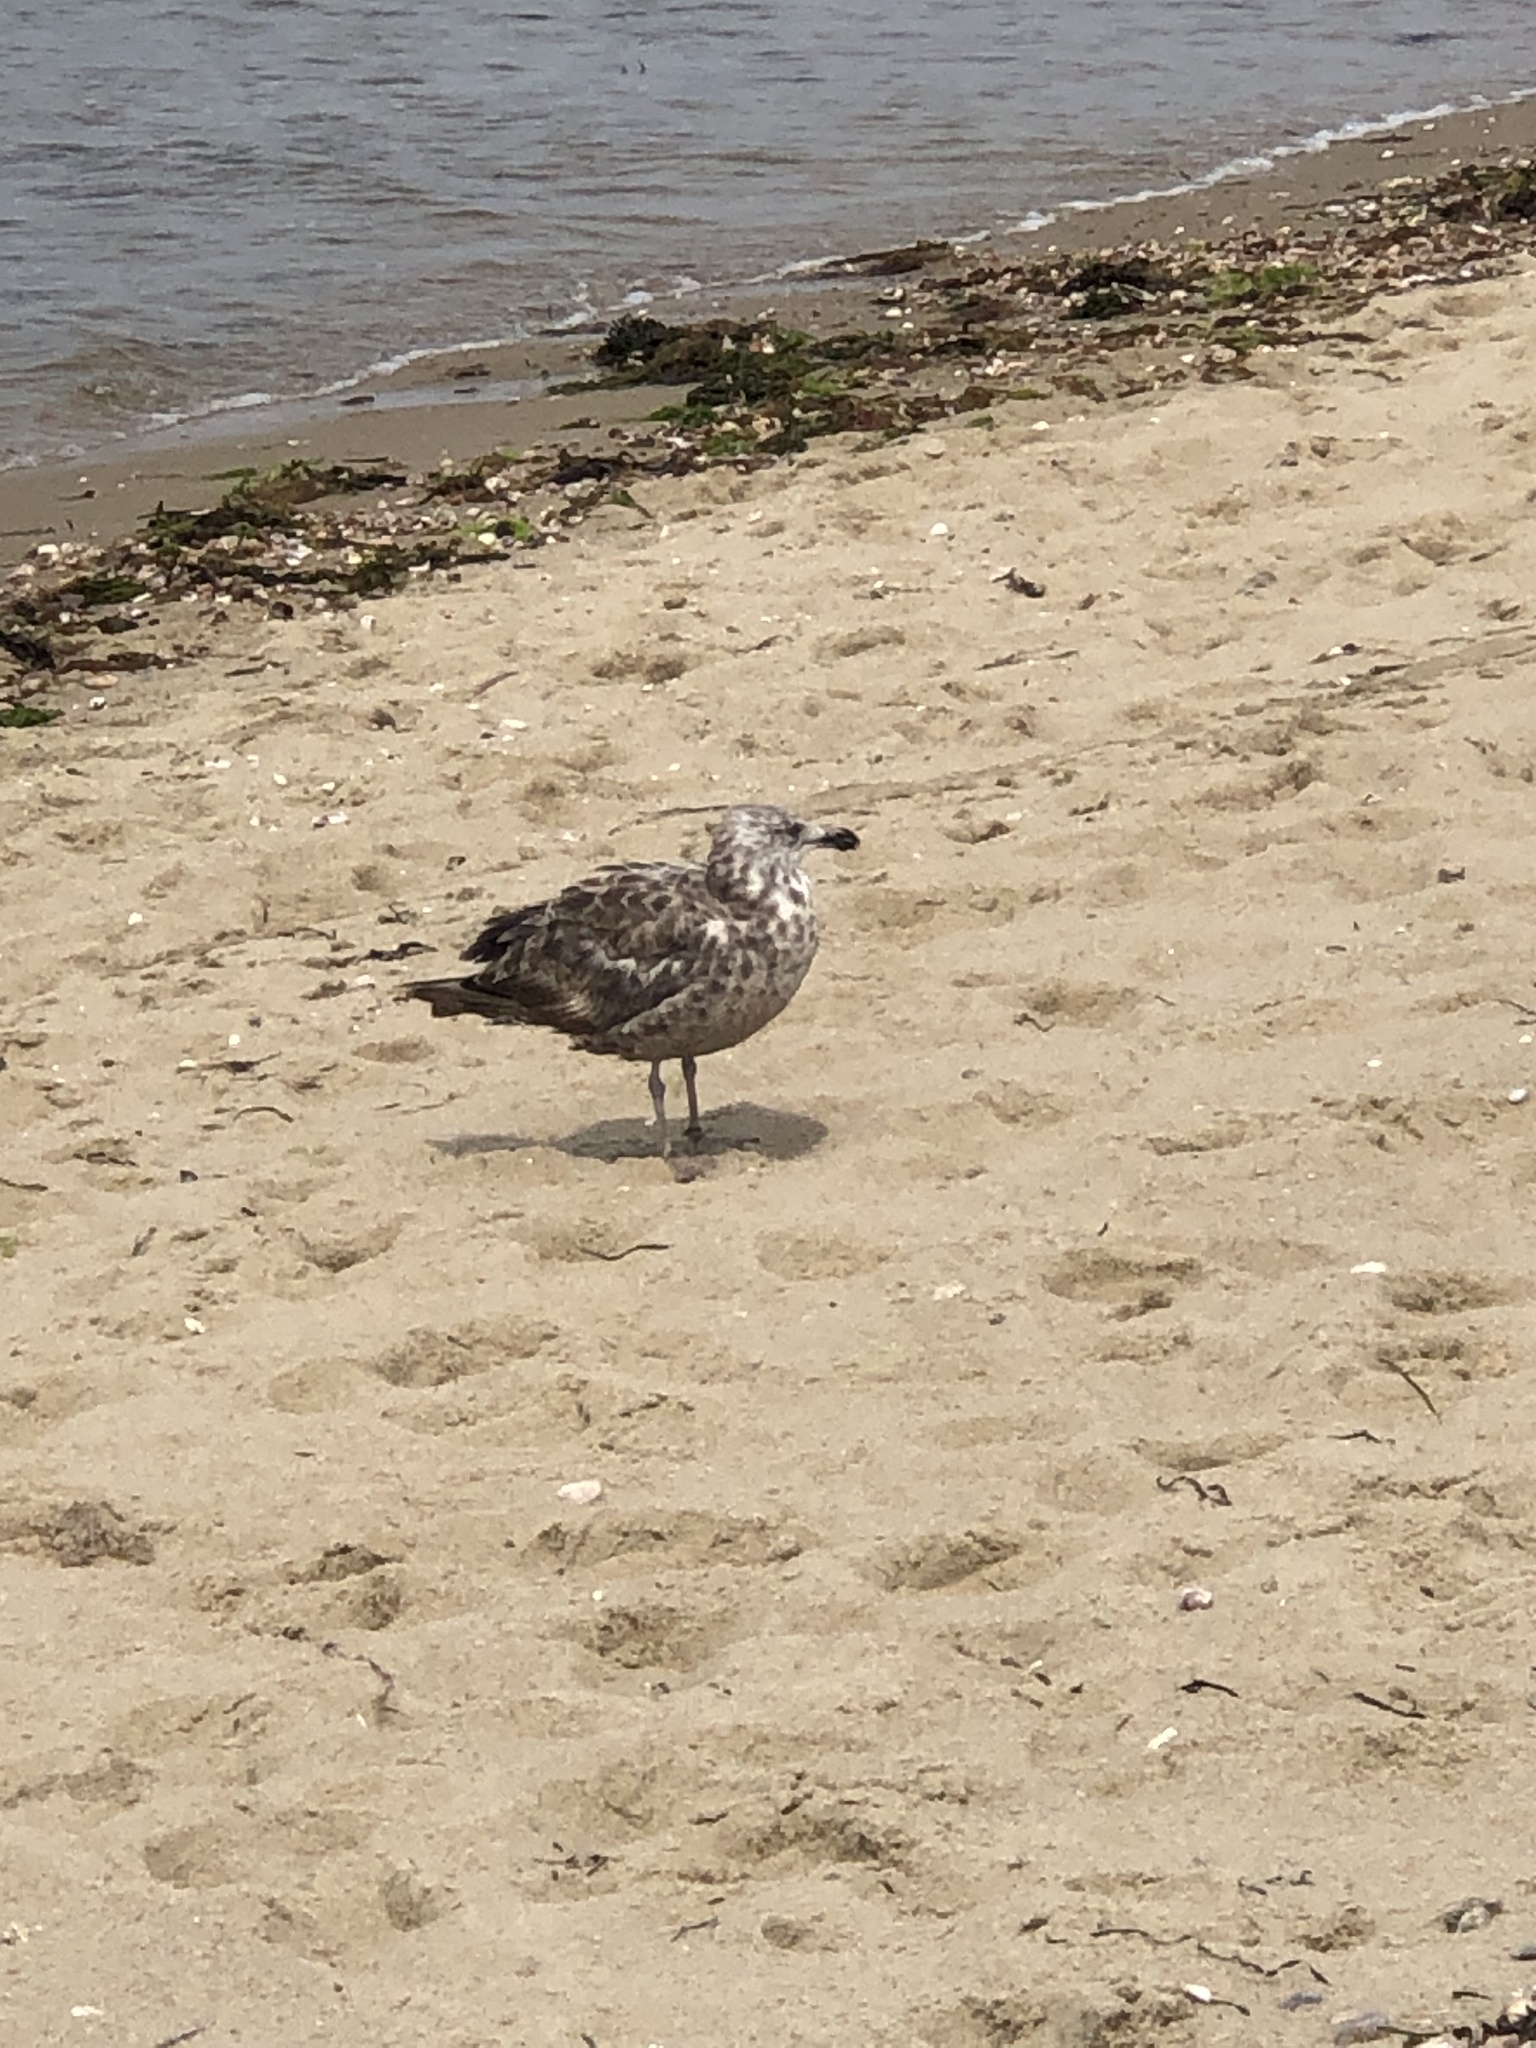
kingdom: Animalia
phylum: Chordata
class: Aves
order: Charadriiformes
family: Laridae
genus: Larus
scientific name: Larus argentatus
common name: Herring gull
